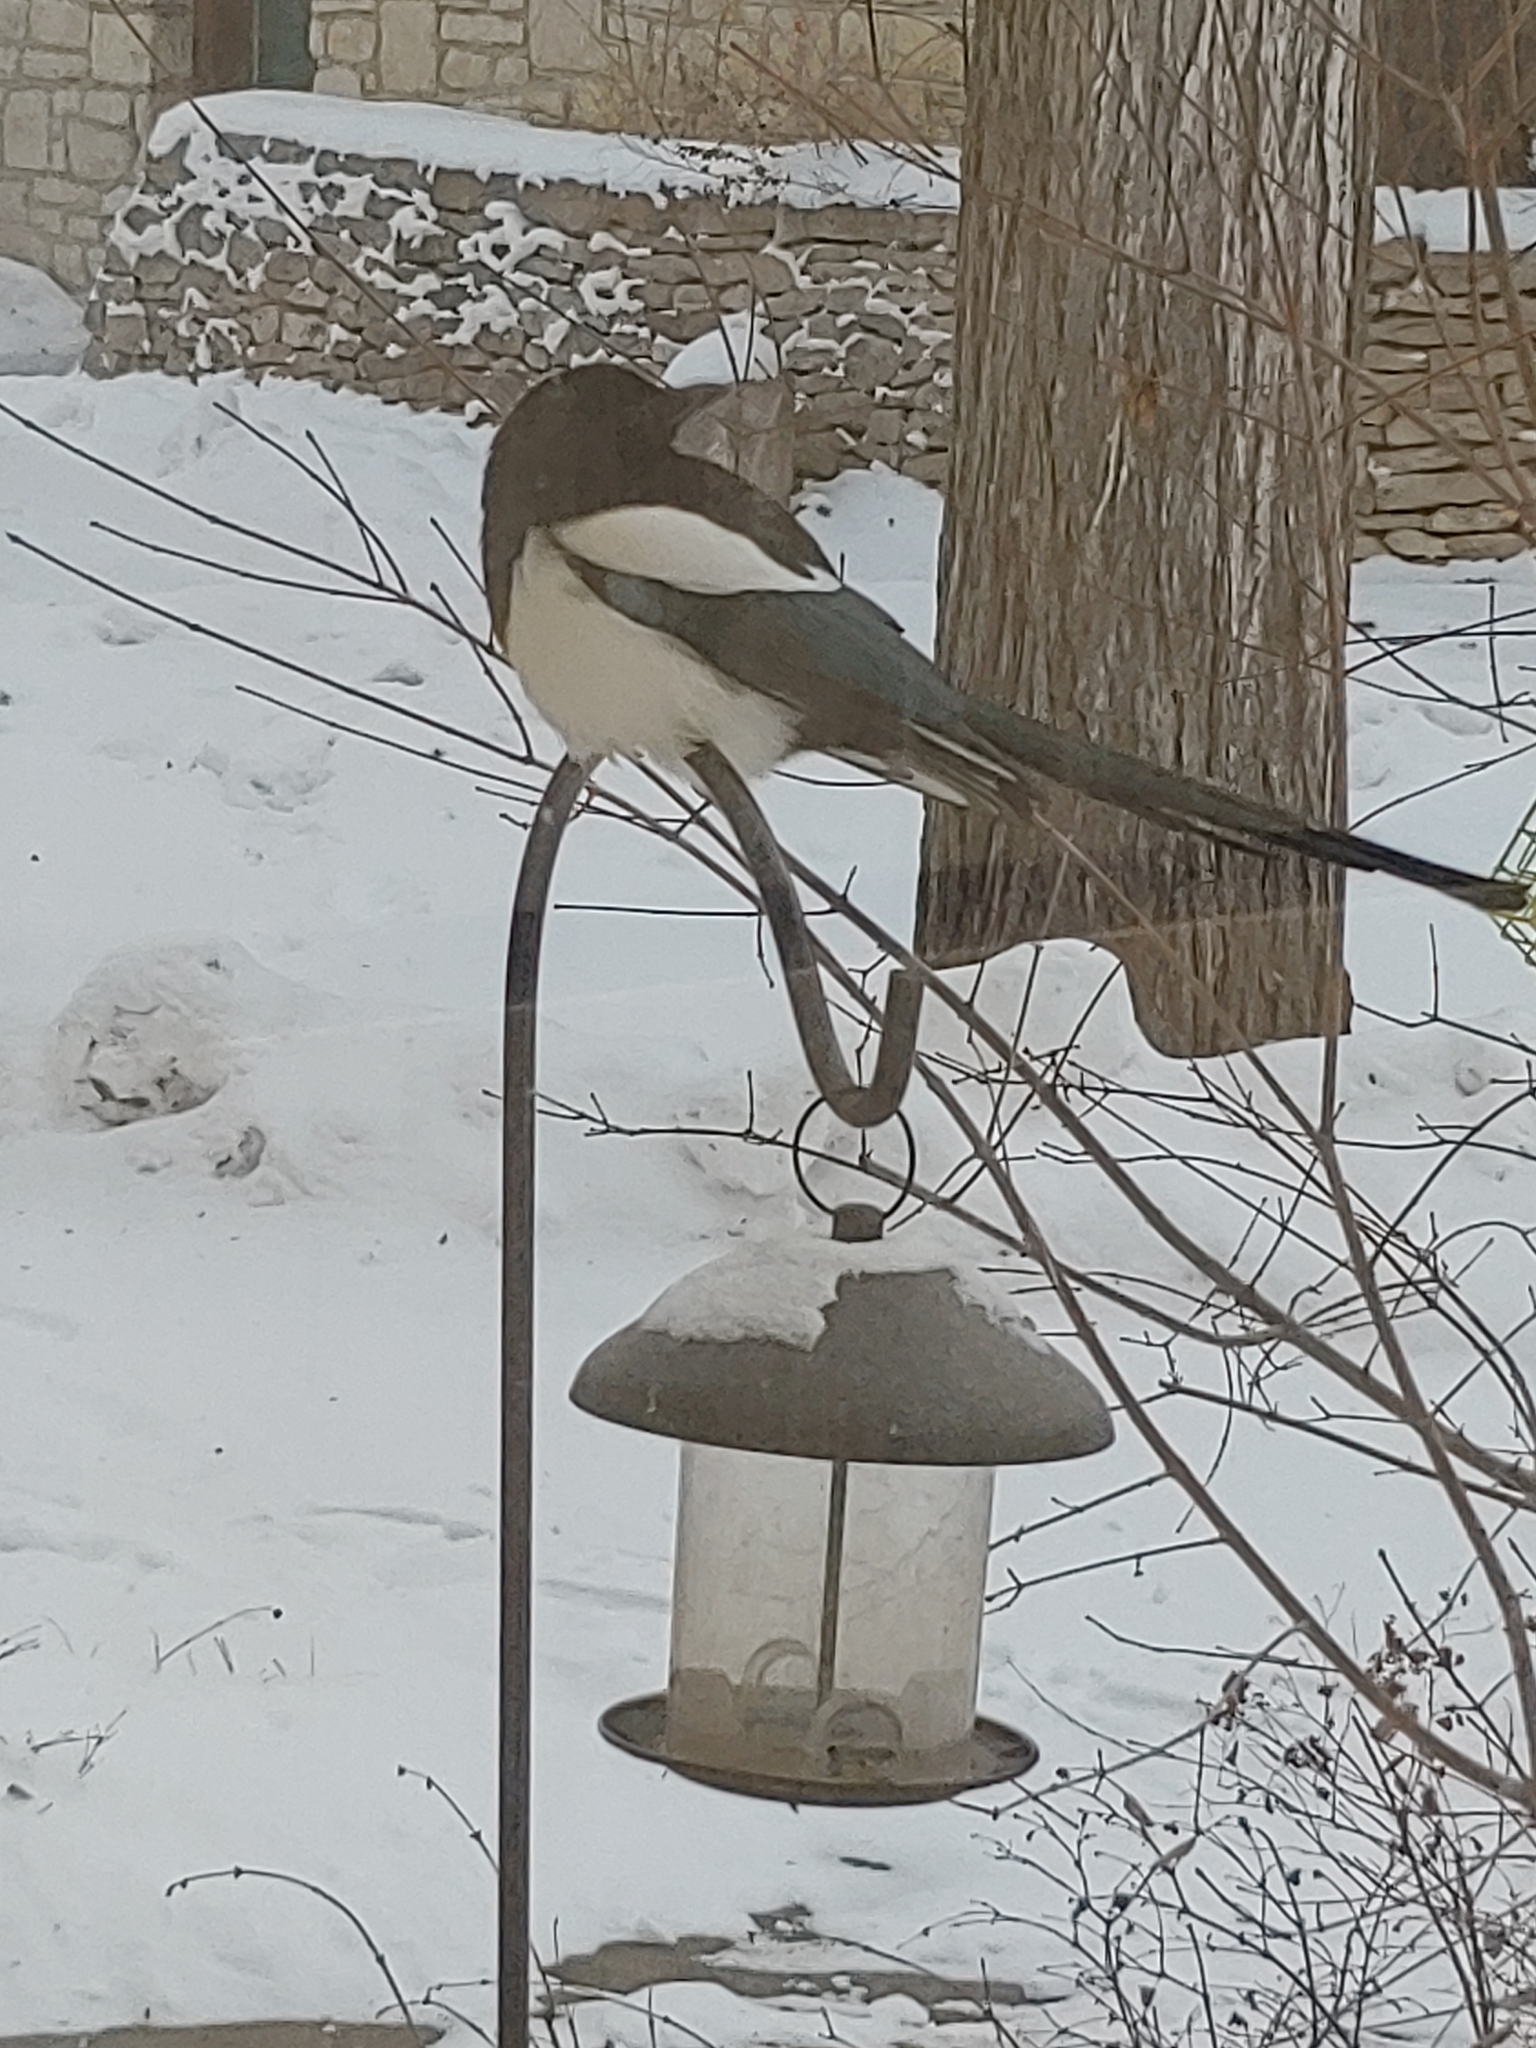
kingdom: Animalia
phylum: Chordata
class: Aves
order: Passeriformes
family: Corvidae
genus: Pica
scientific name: Pica hudsonia
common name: Black-billed magpie
